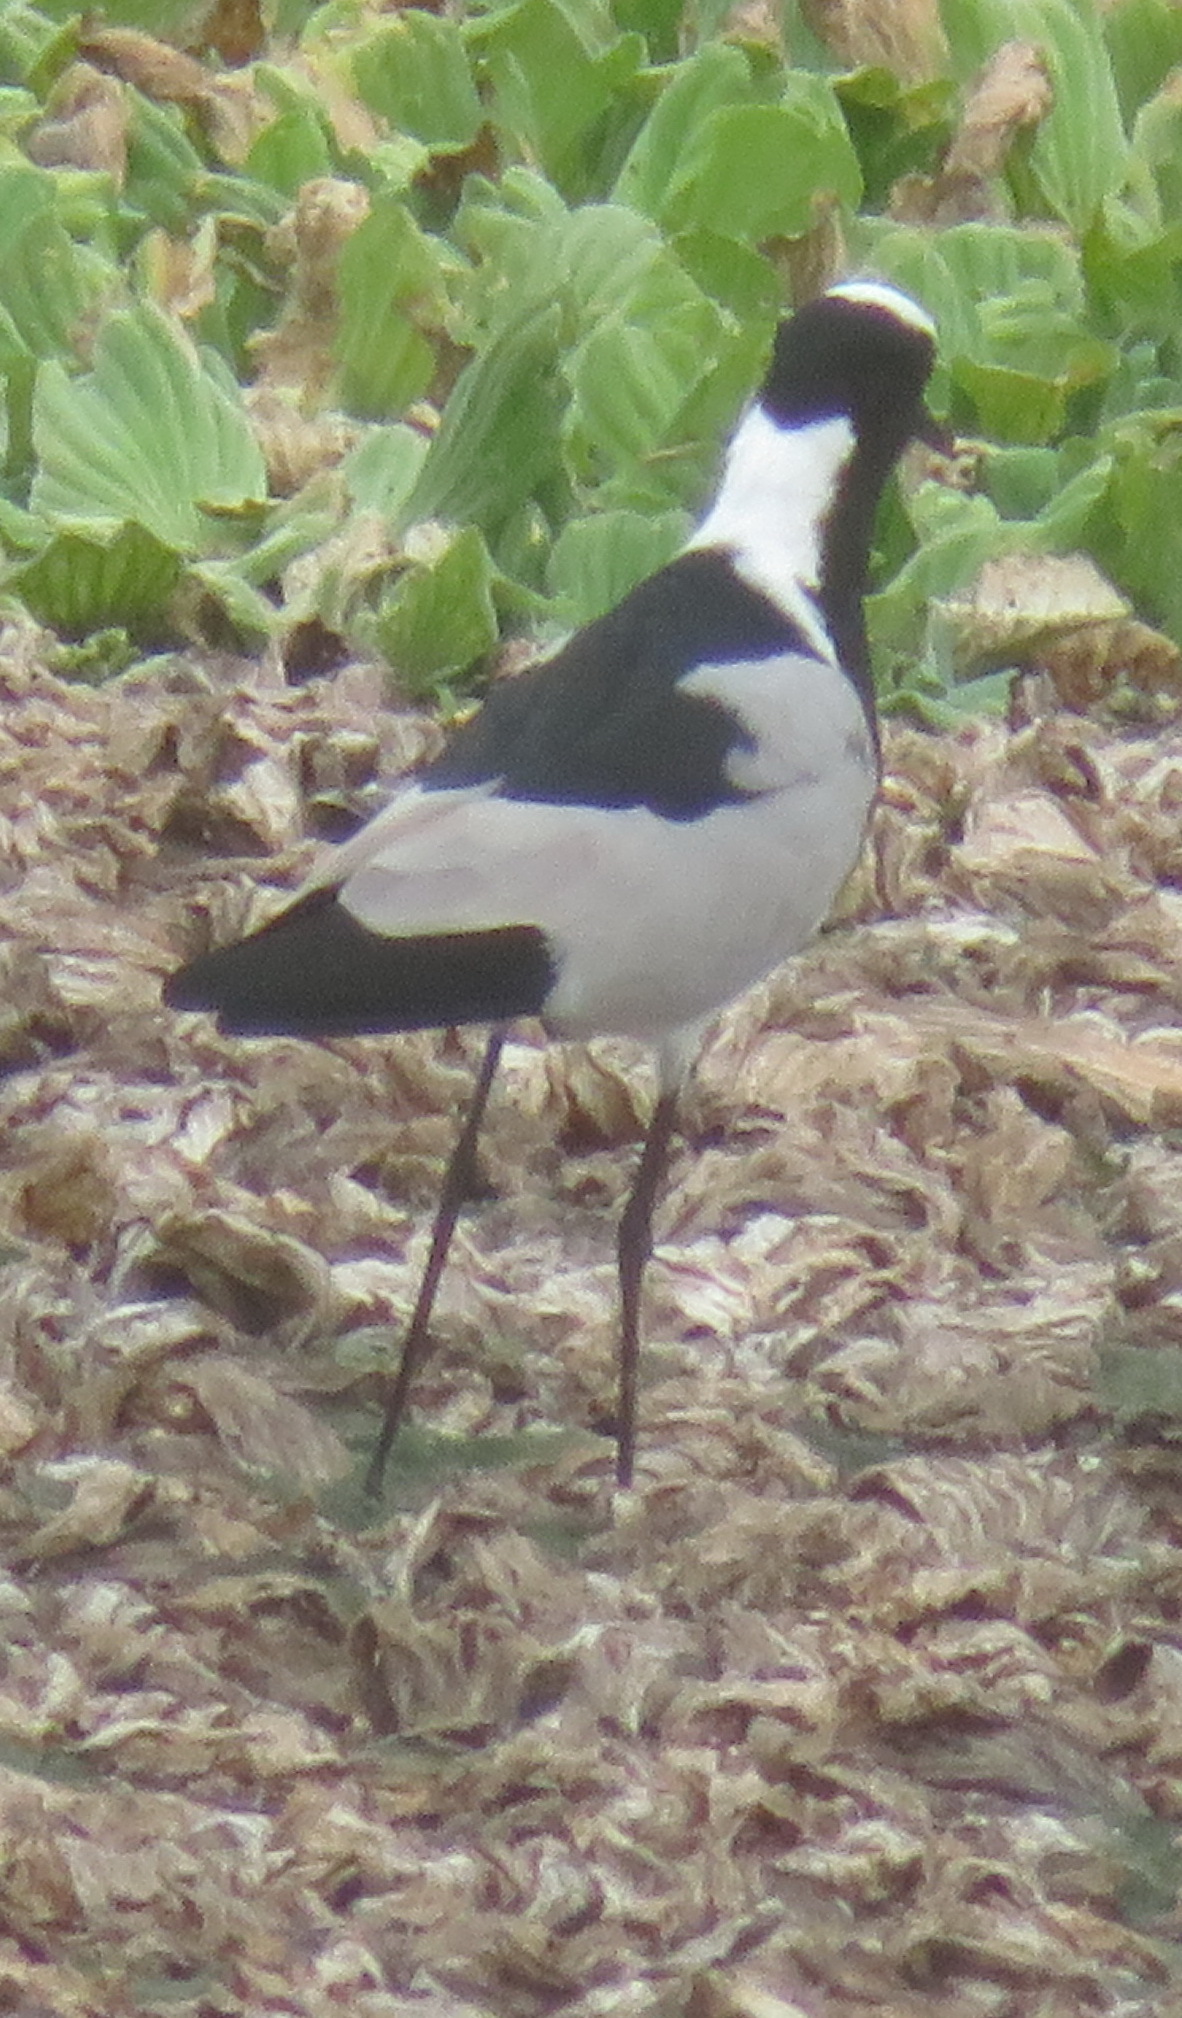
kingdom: Animalia
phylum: Chordata
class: Aves
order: Charadriiformes
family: Charadriidae
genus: Vanellus
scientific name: Vanellus armatus
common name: Blacksmith lapwing
